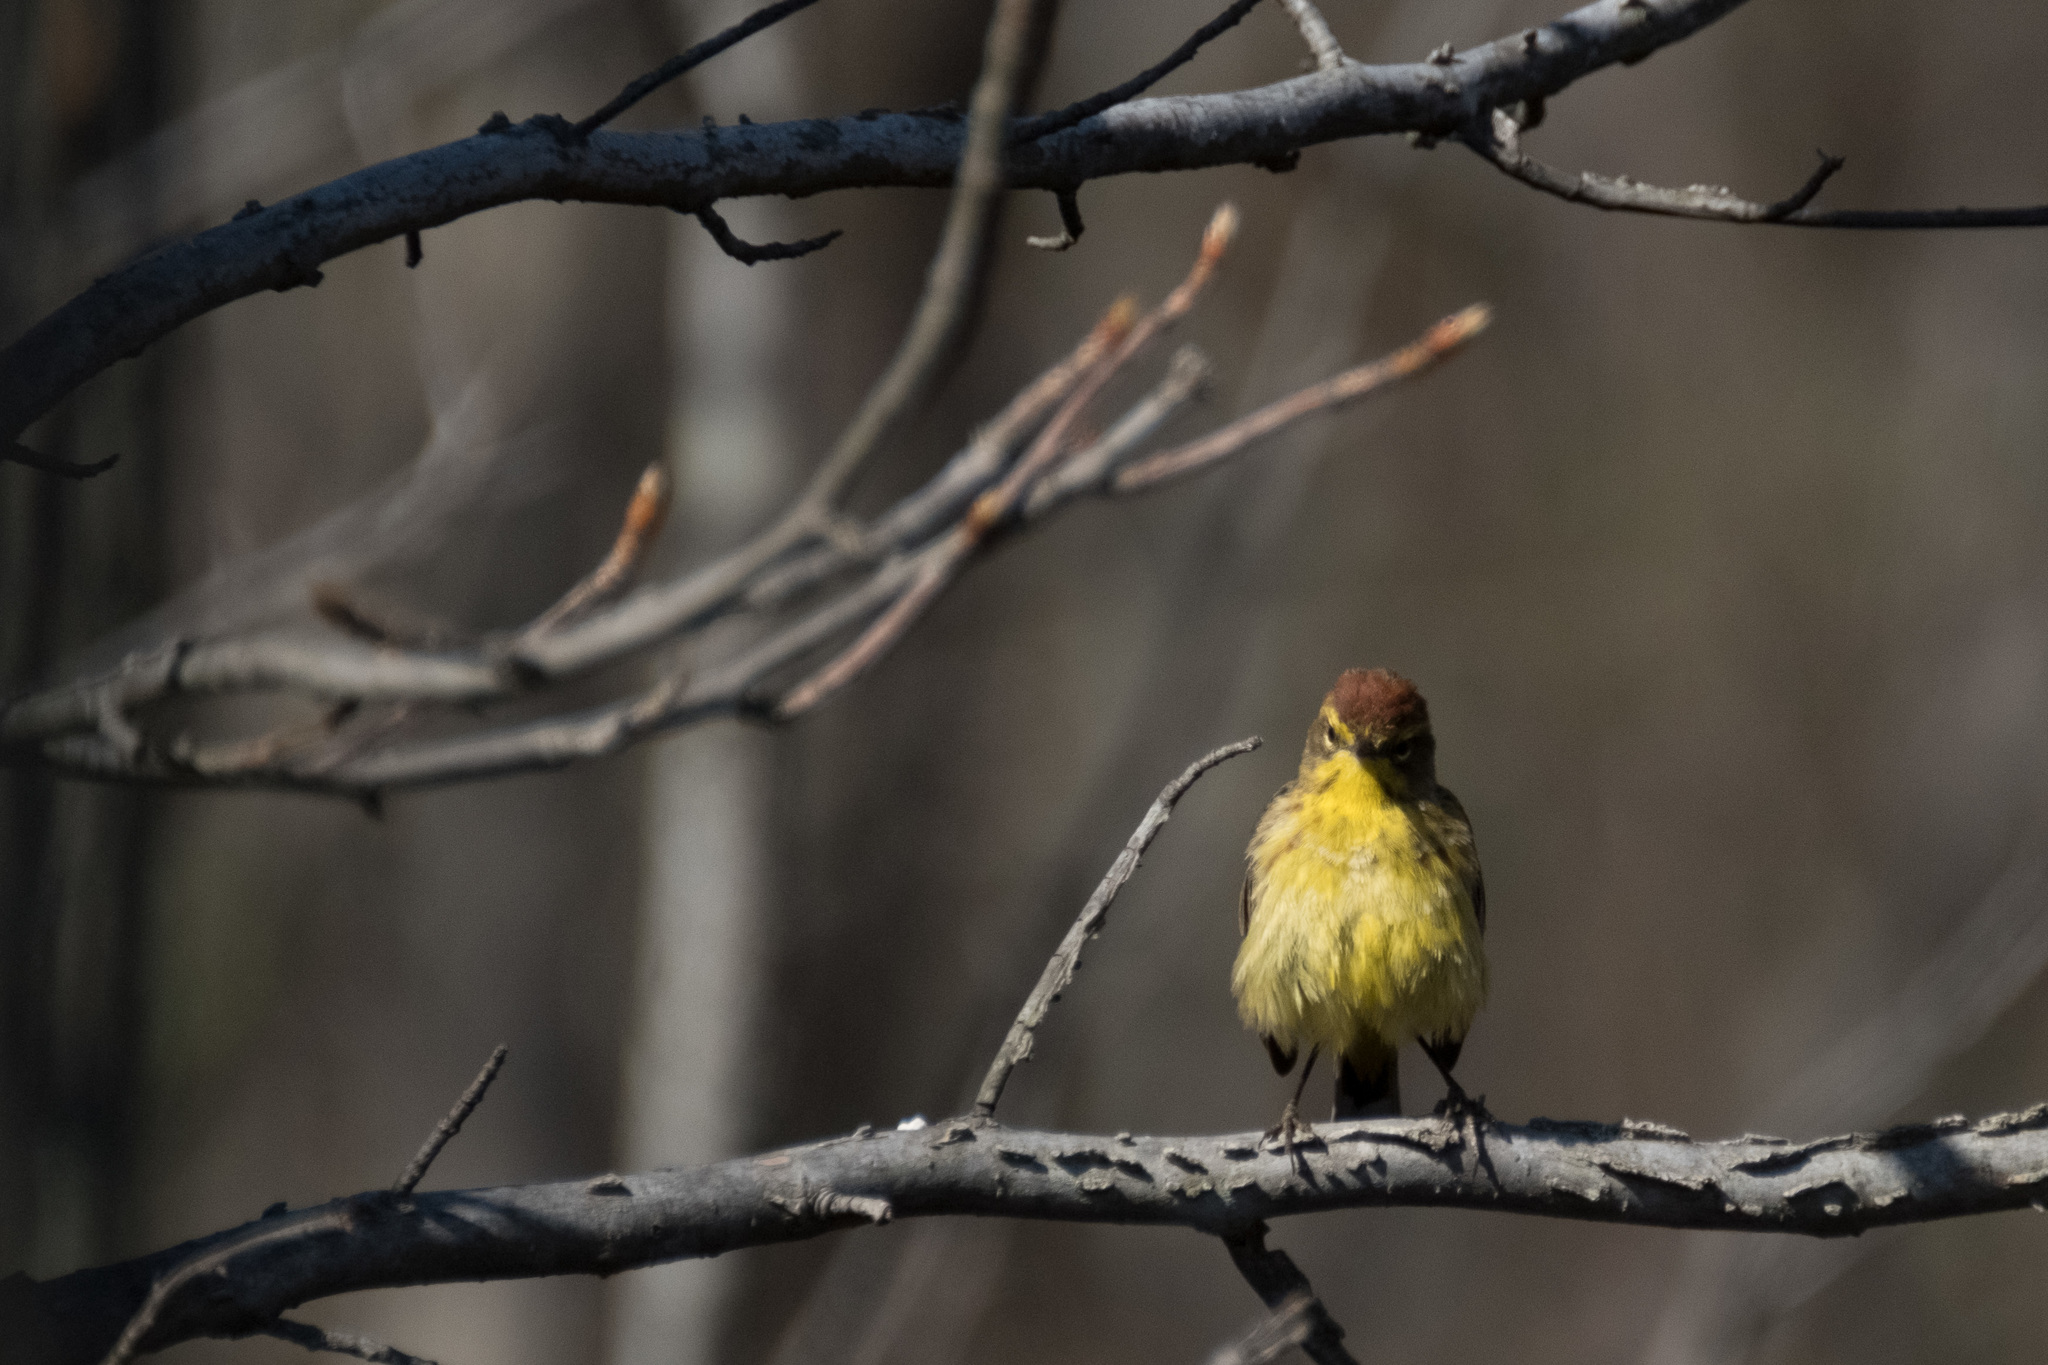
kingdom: Animalia
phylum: Chordata
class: Aves
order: Passeriformes
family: Parulidae
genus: Setophaga
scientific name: Setophaga palmarum
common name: Palm warbler
